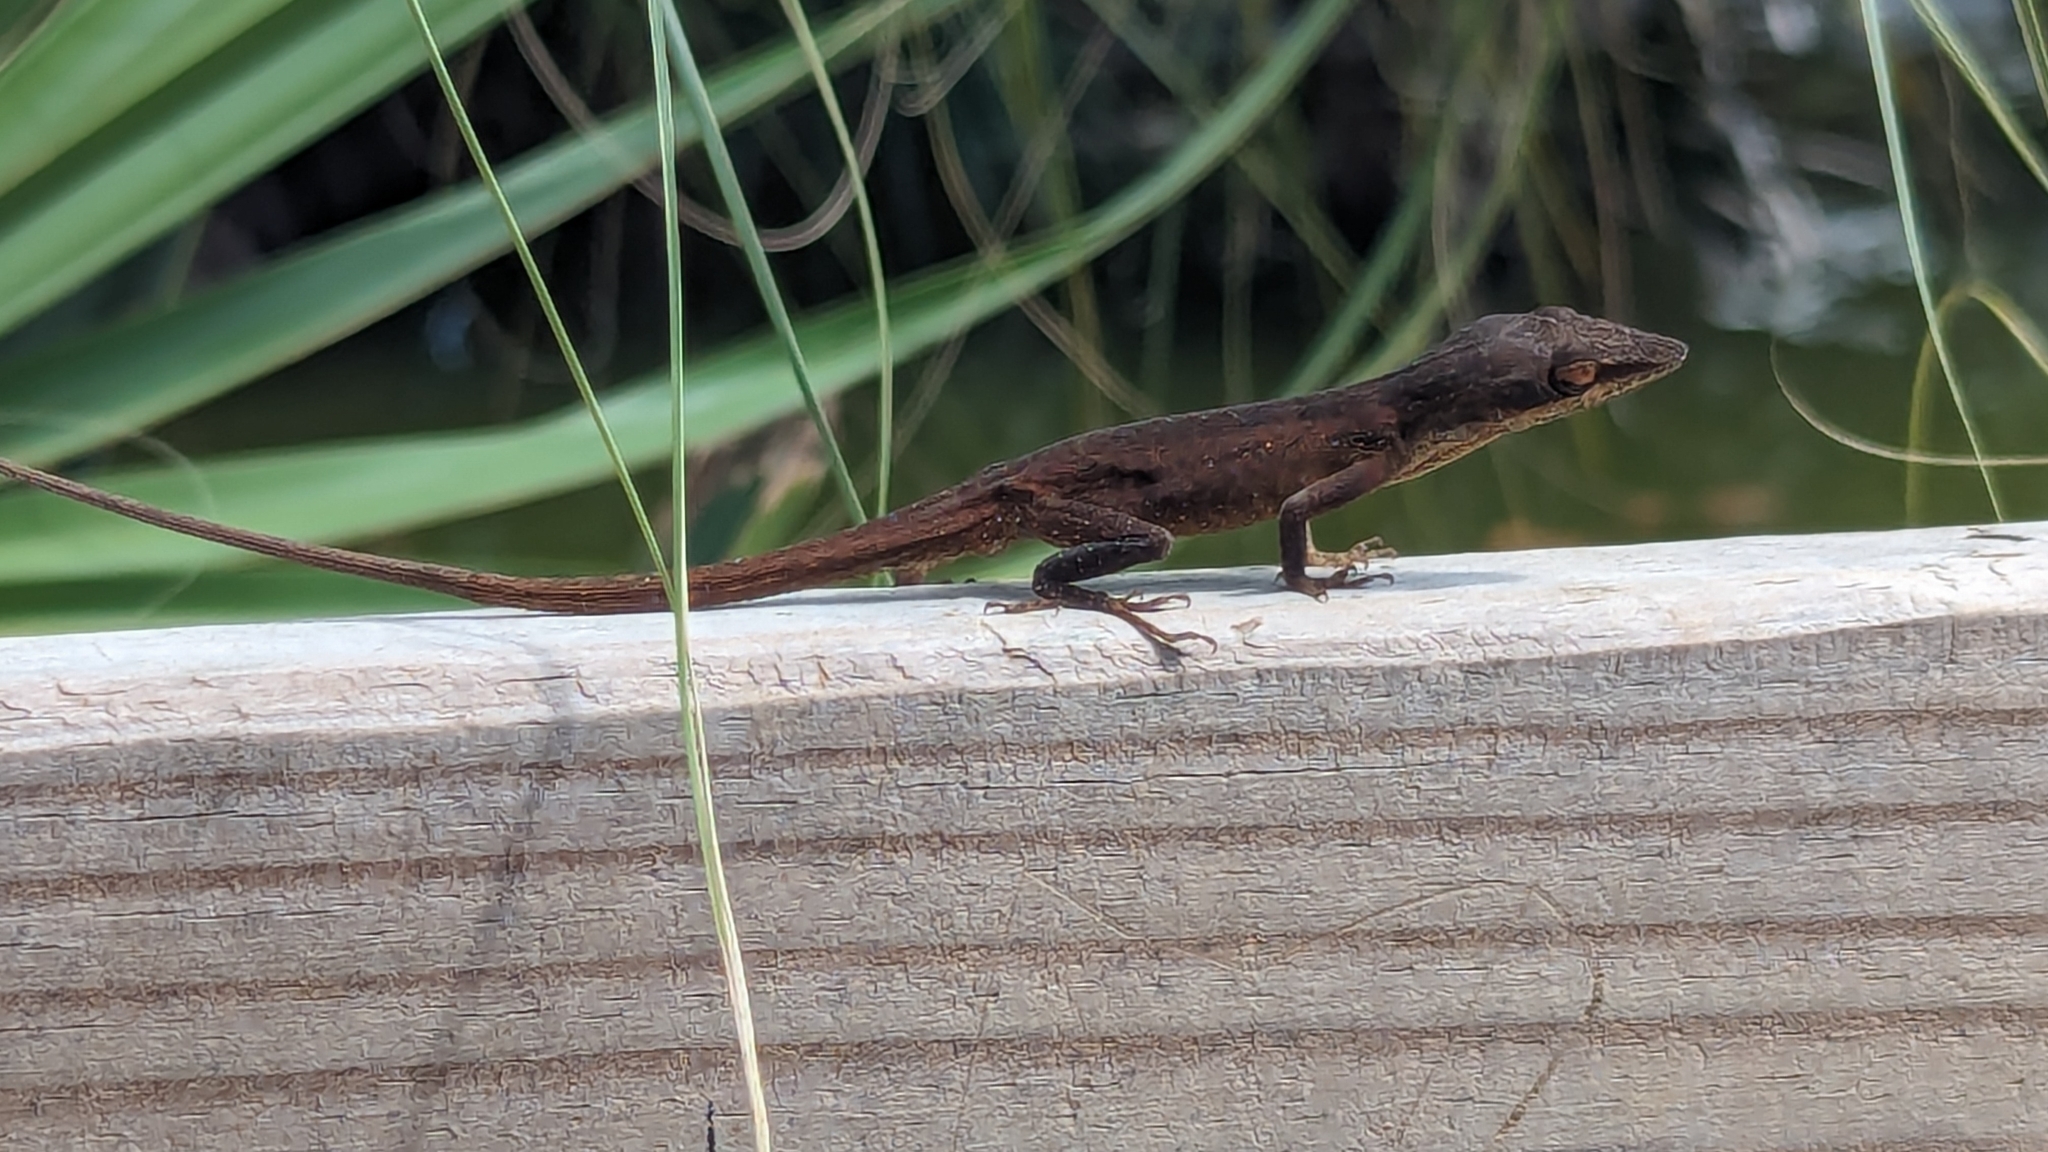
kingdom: Animalia
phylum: Chordata
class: Squamata
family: Dactyloidae
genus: Anolis
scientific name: Anolis carolinensis
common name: Green anole
